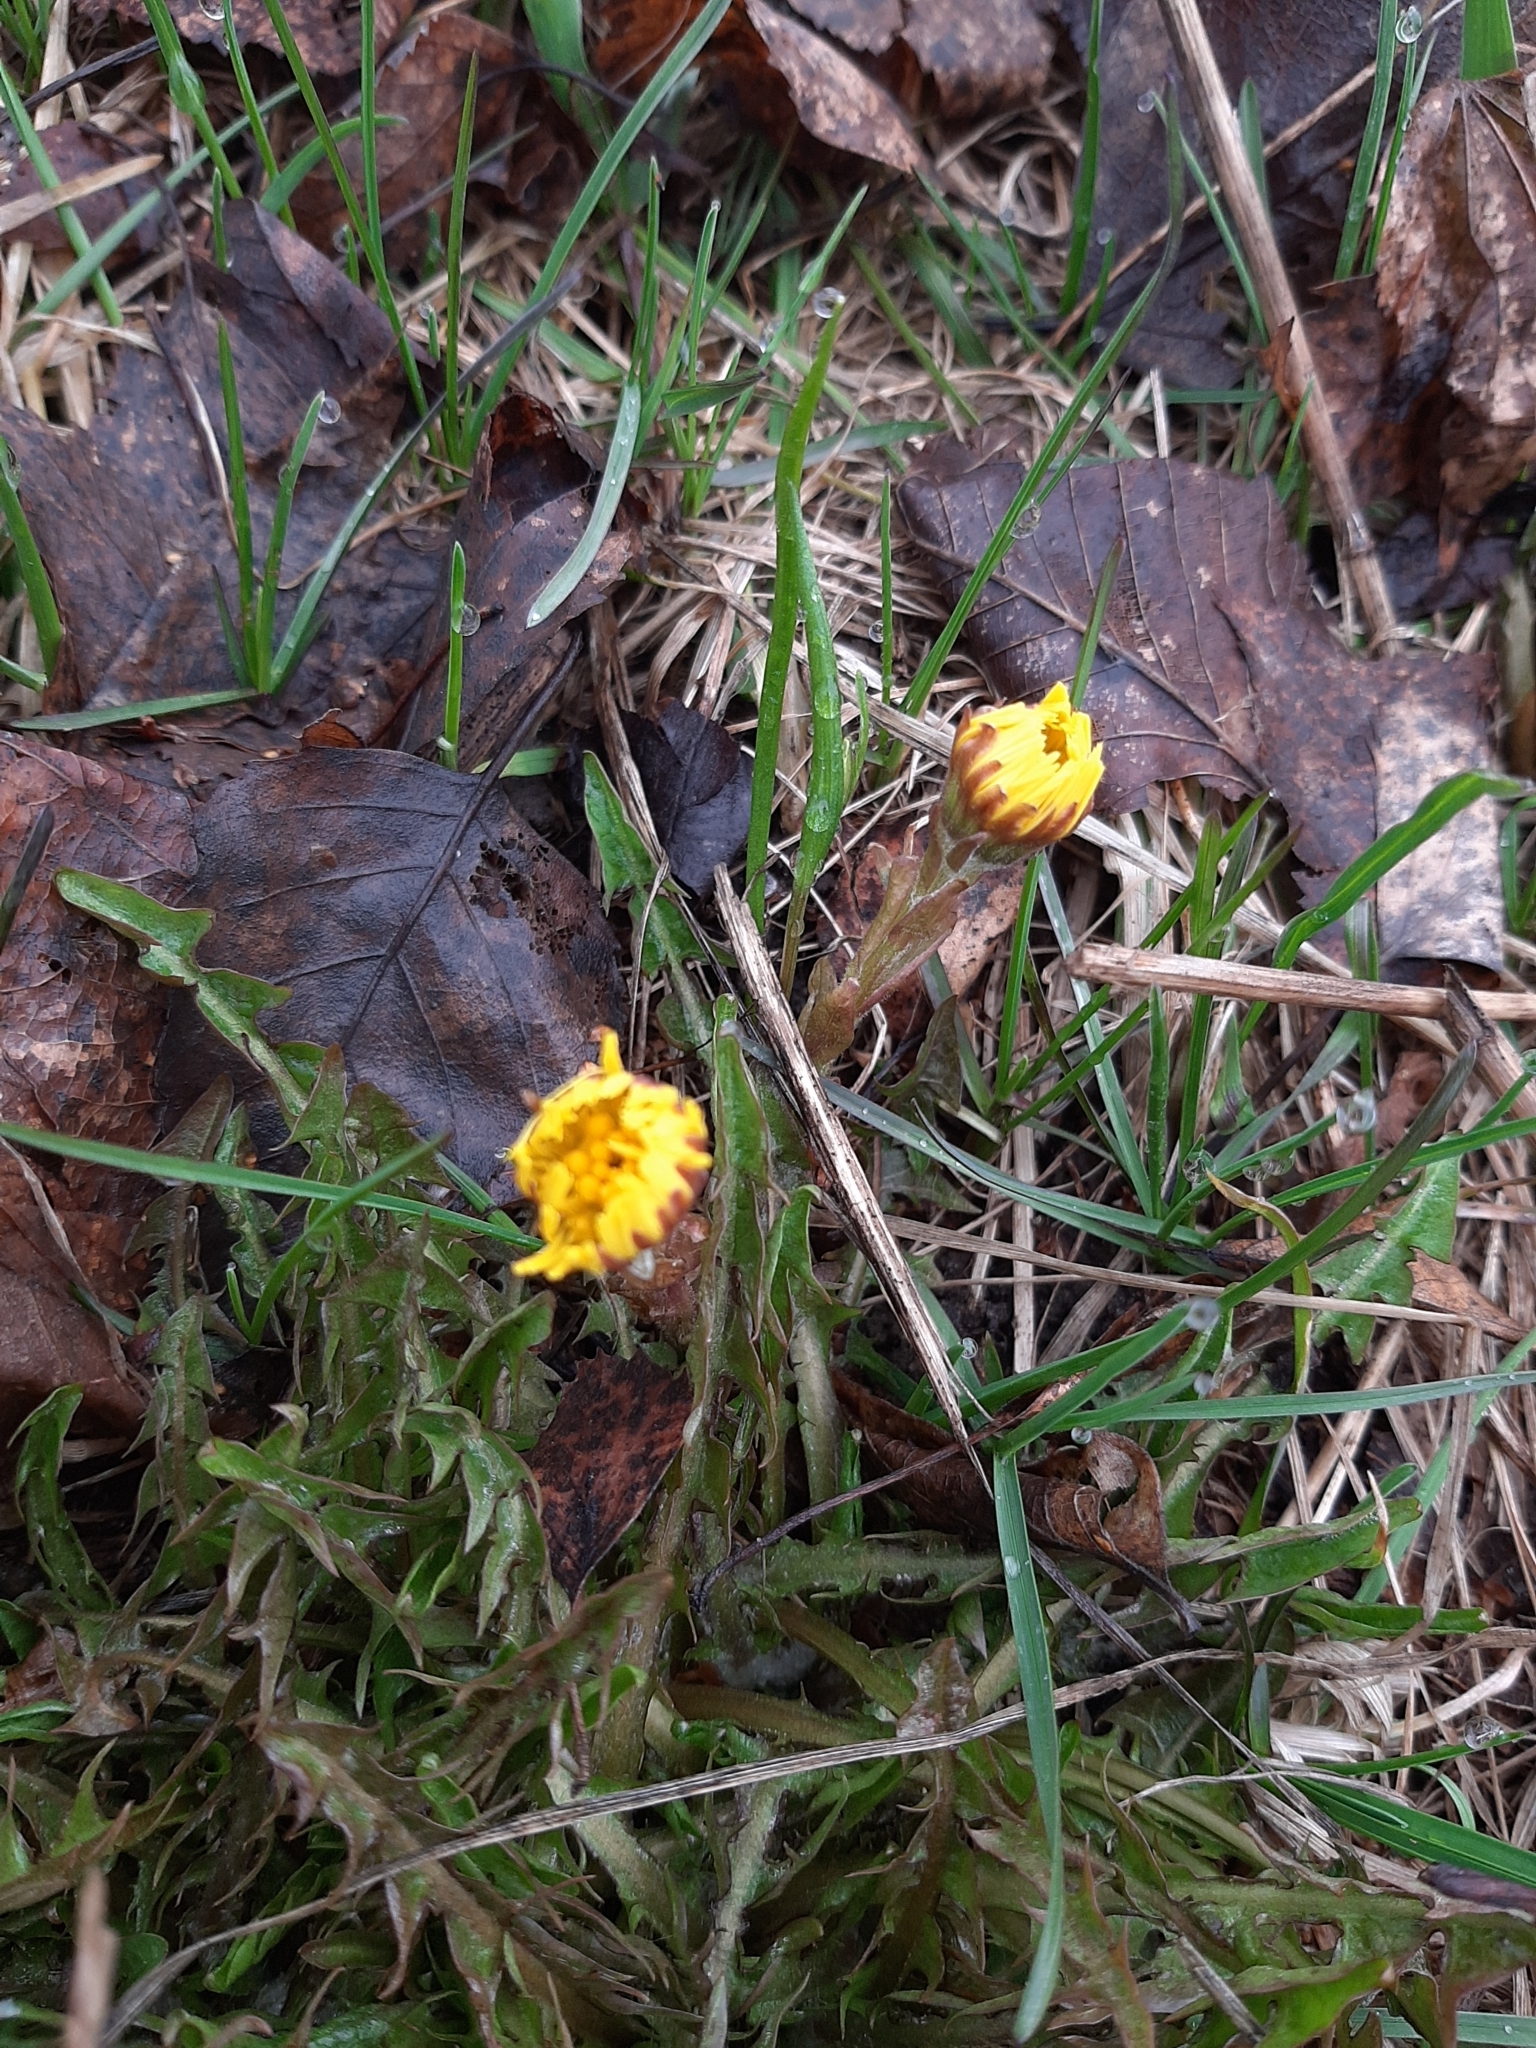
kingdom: Plantae
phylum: Tracheophyta
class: Magnoliopsida
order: Asterales
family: Asteraceae
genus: Tussilago
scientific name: Tussilago farfara
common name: Coltsfoot
